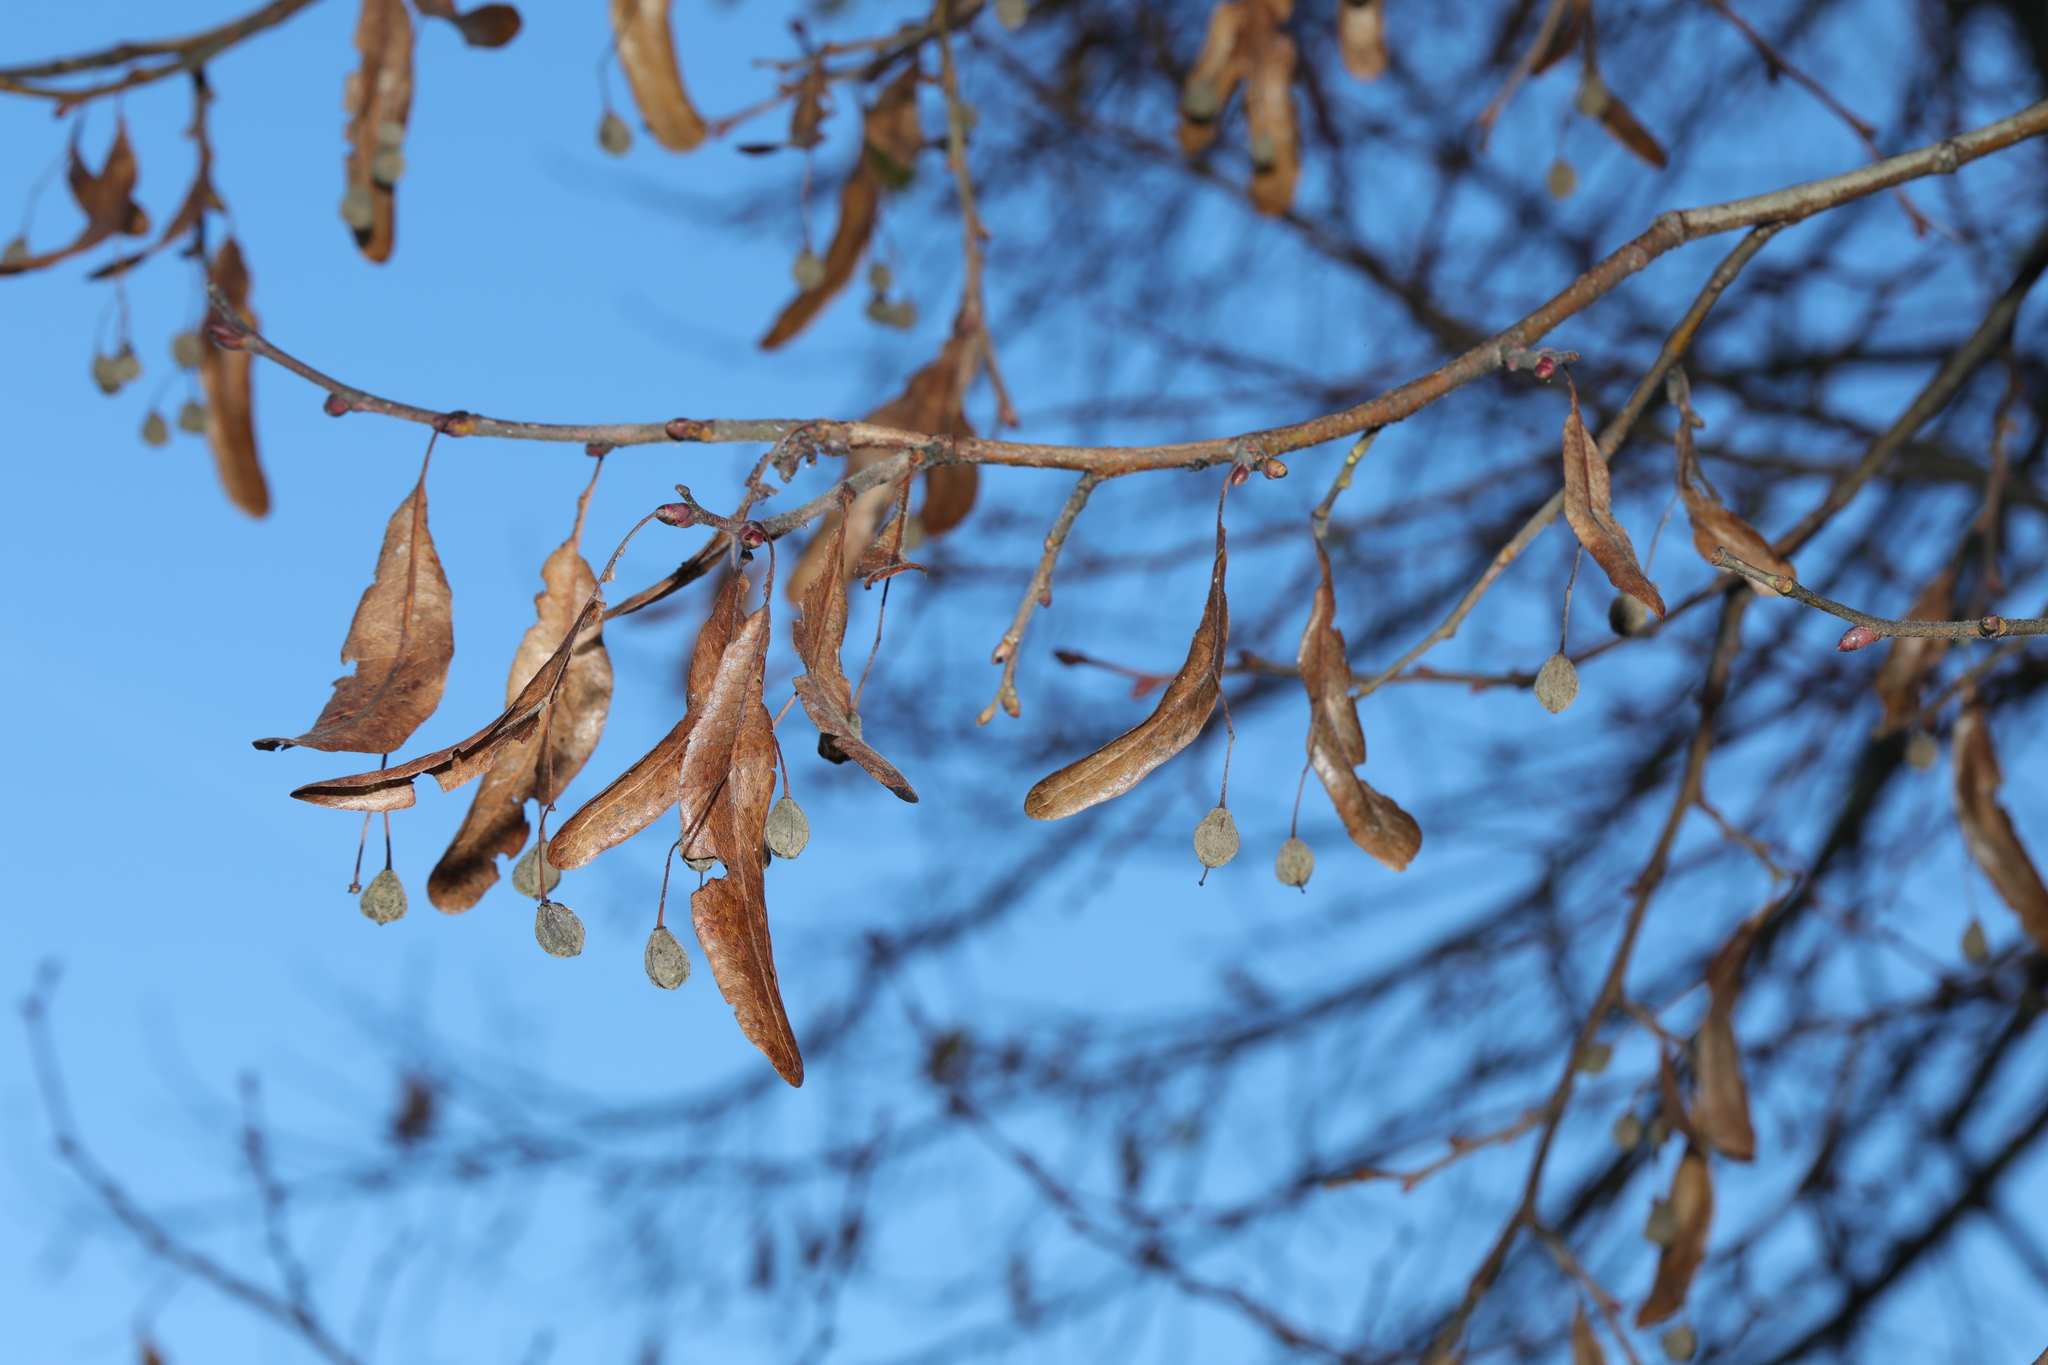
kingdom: Plantae
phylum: Tracheophyta
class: Magnoliopsida
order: Malvales
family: Malvaceae
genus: Tilia
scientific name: Tilia europaea
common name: European linden
